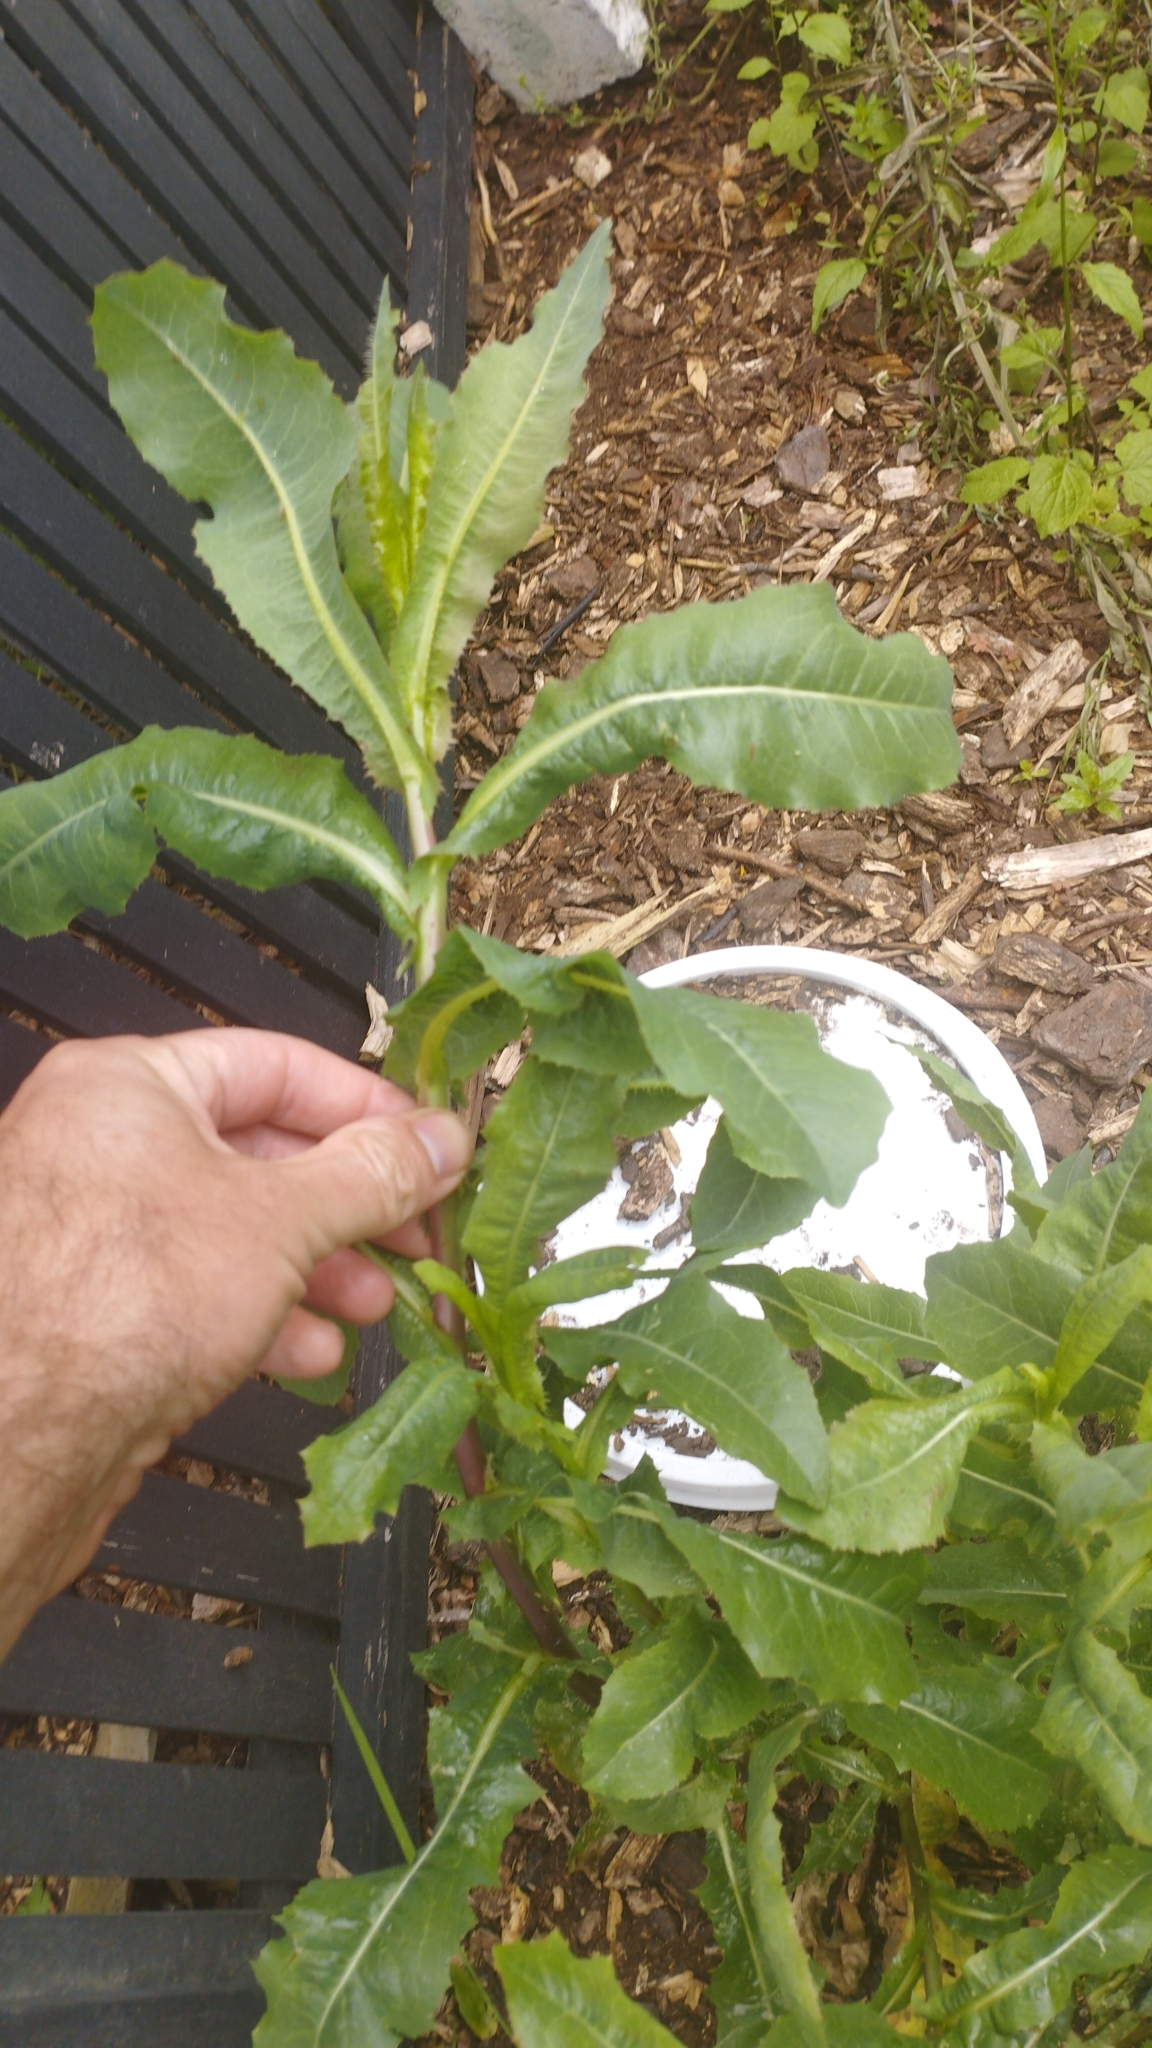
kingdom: Plantae
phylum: Tracheophyta
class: Magnoliopsida
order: Asterales
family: Asteraceae
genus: Lactuca
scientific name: Lactuca serriola
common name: Prickly lettuce
